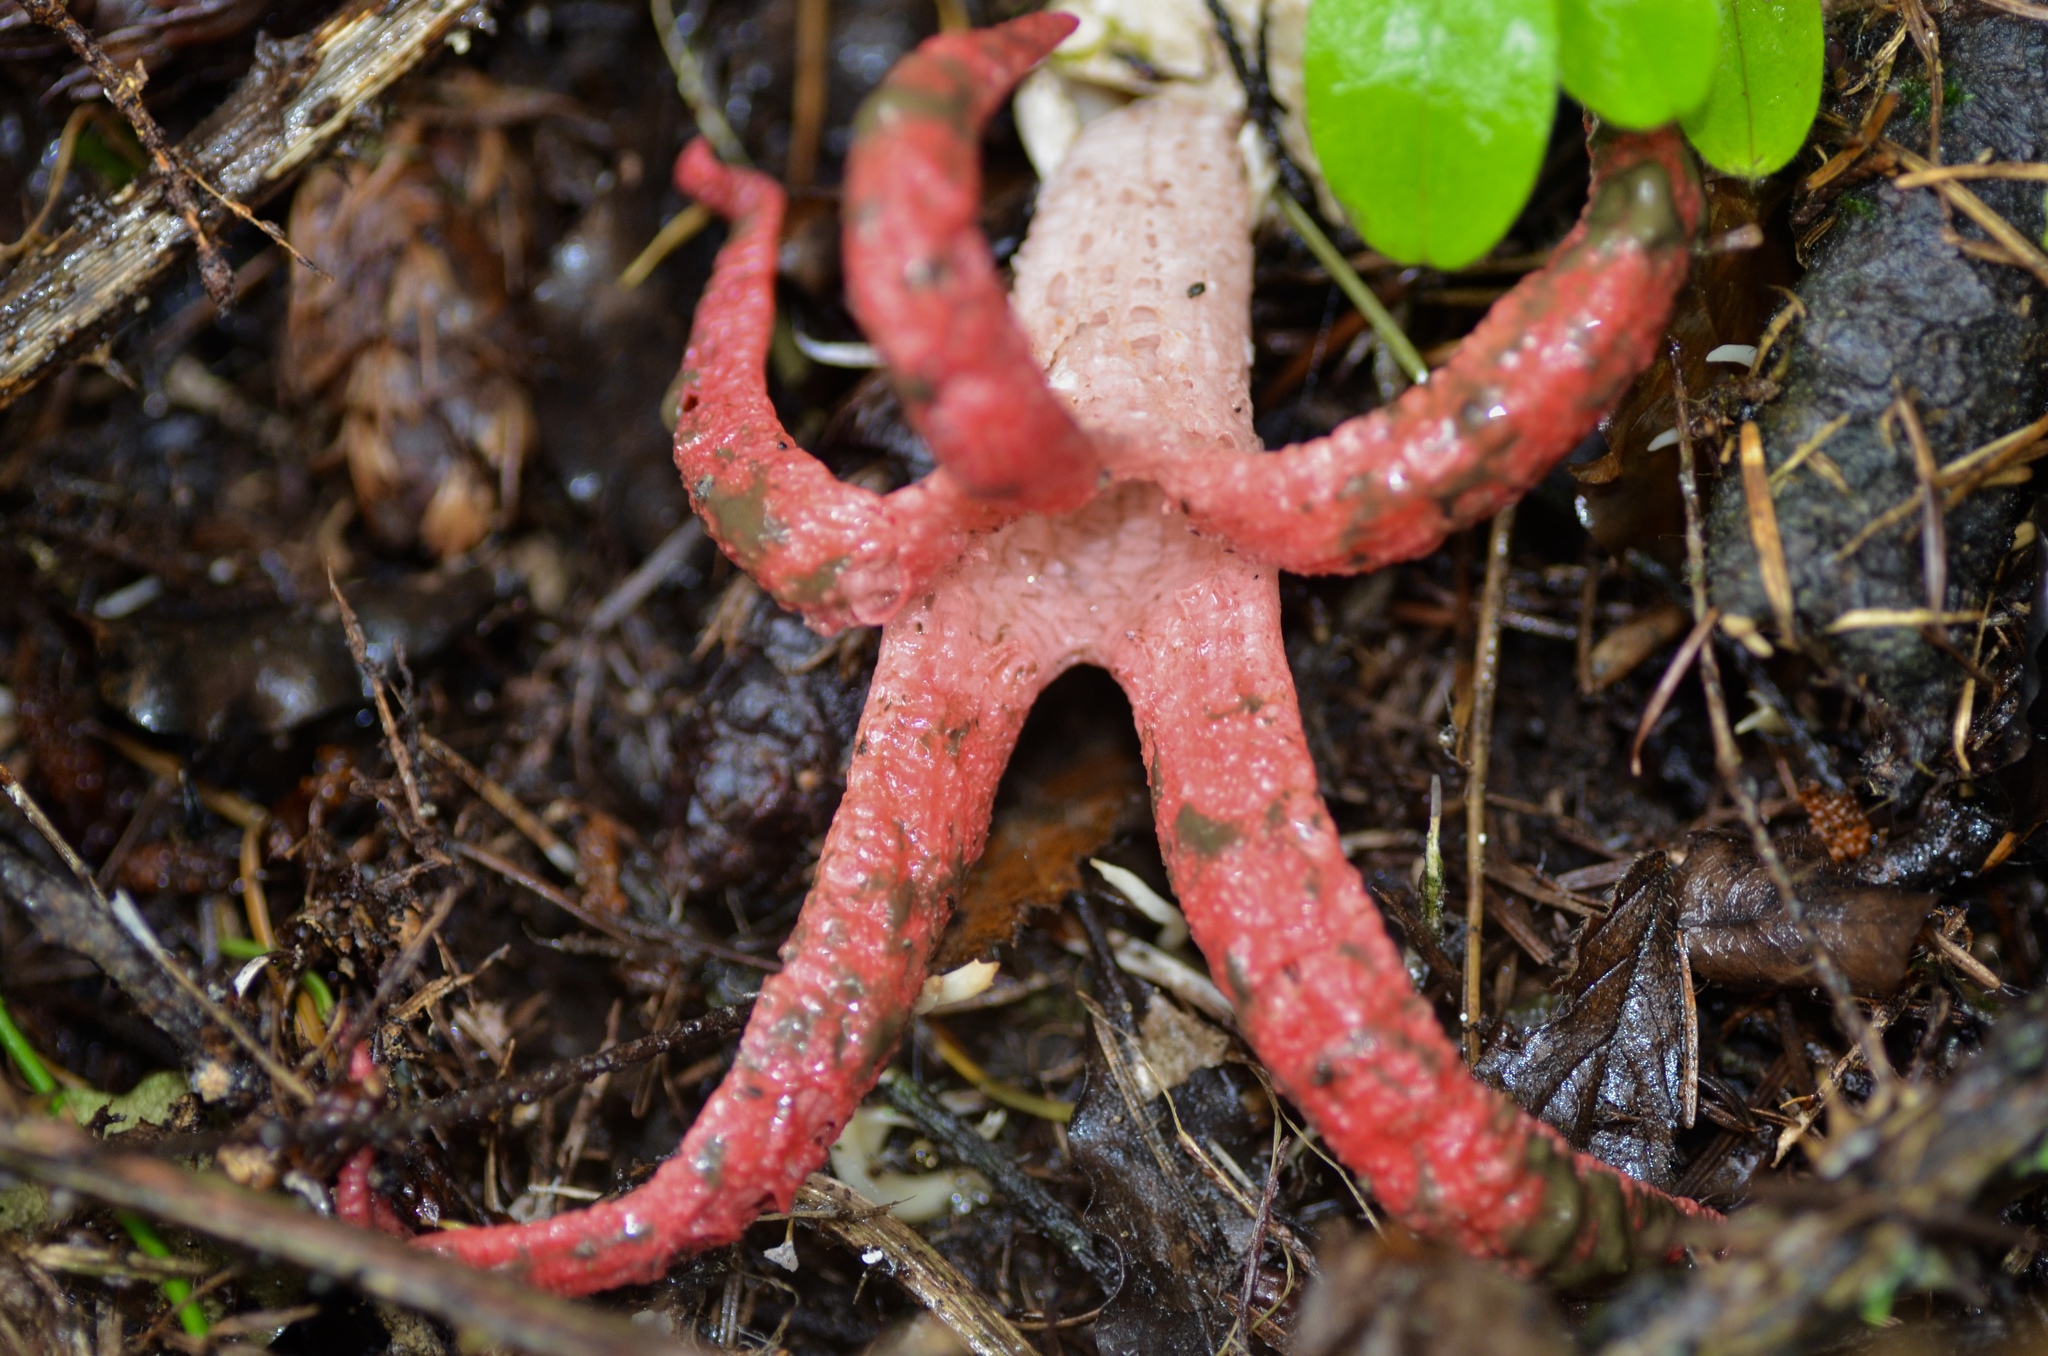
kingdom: Fungi
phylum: Basidiomycota
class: Agaricomycetes
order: Phallales
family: Phallaceae
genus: Clathrus
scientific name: Clathrus archeri
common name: Devil's fingers
